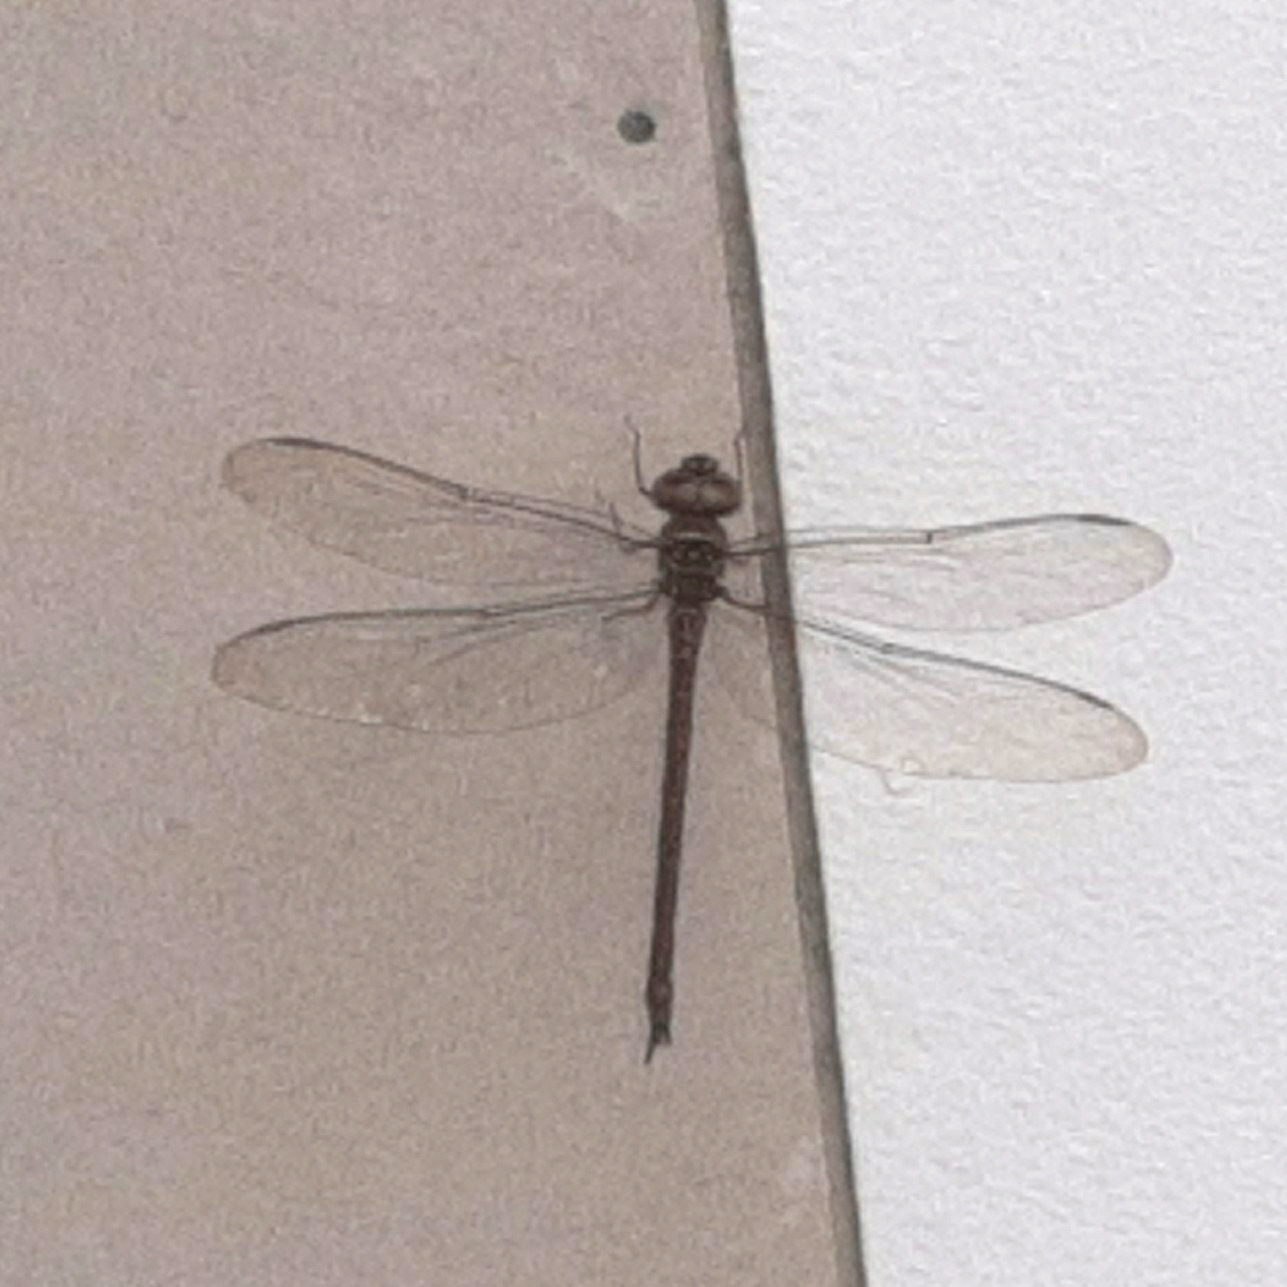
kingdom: Animalia
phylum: Arthropoda
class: Insecta
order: Odonata
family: Aeshnidae
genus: Gynacantha
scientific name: Gynacantha nervosa
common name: Twilight darner
